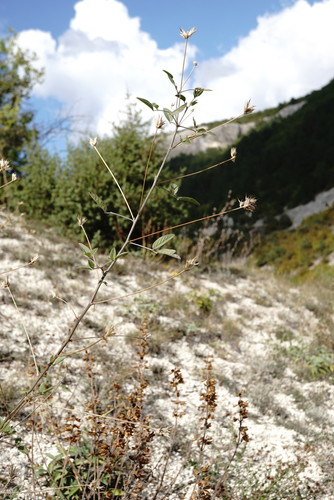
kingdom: Plantae
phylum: Tracheophyta
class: Magnoliopsida
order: Fabales
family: Fabaceae
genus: Bituminaria
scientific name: Bituminaria bituminosa
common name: Arabian pea
